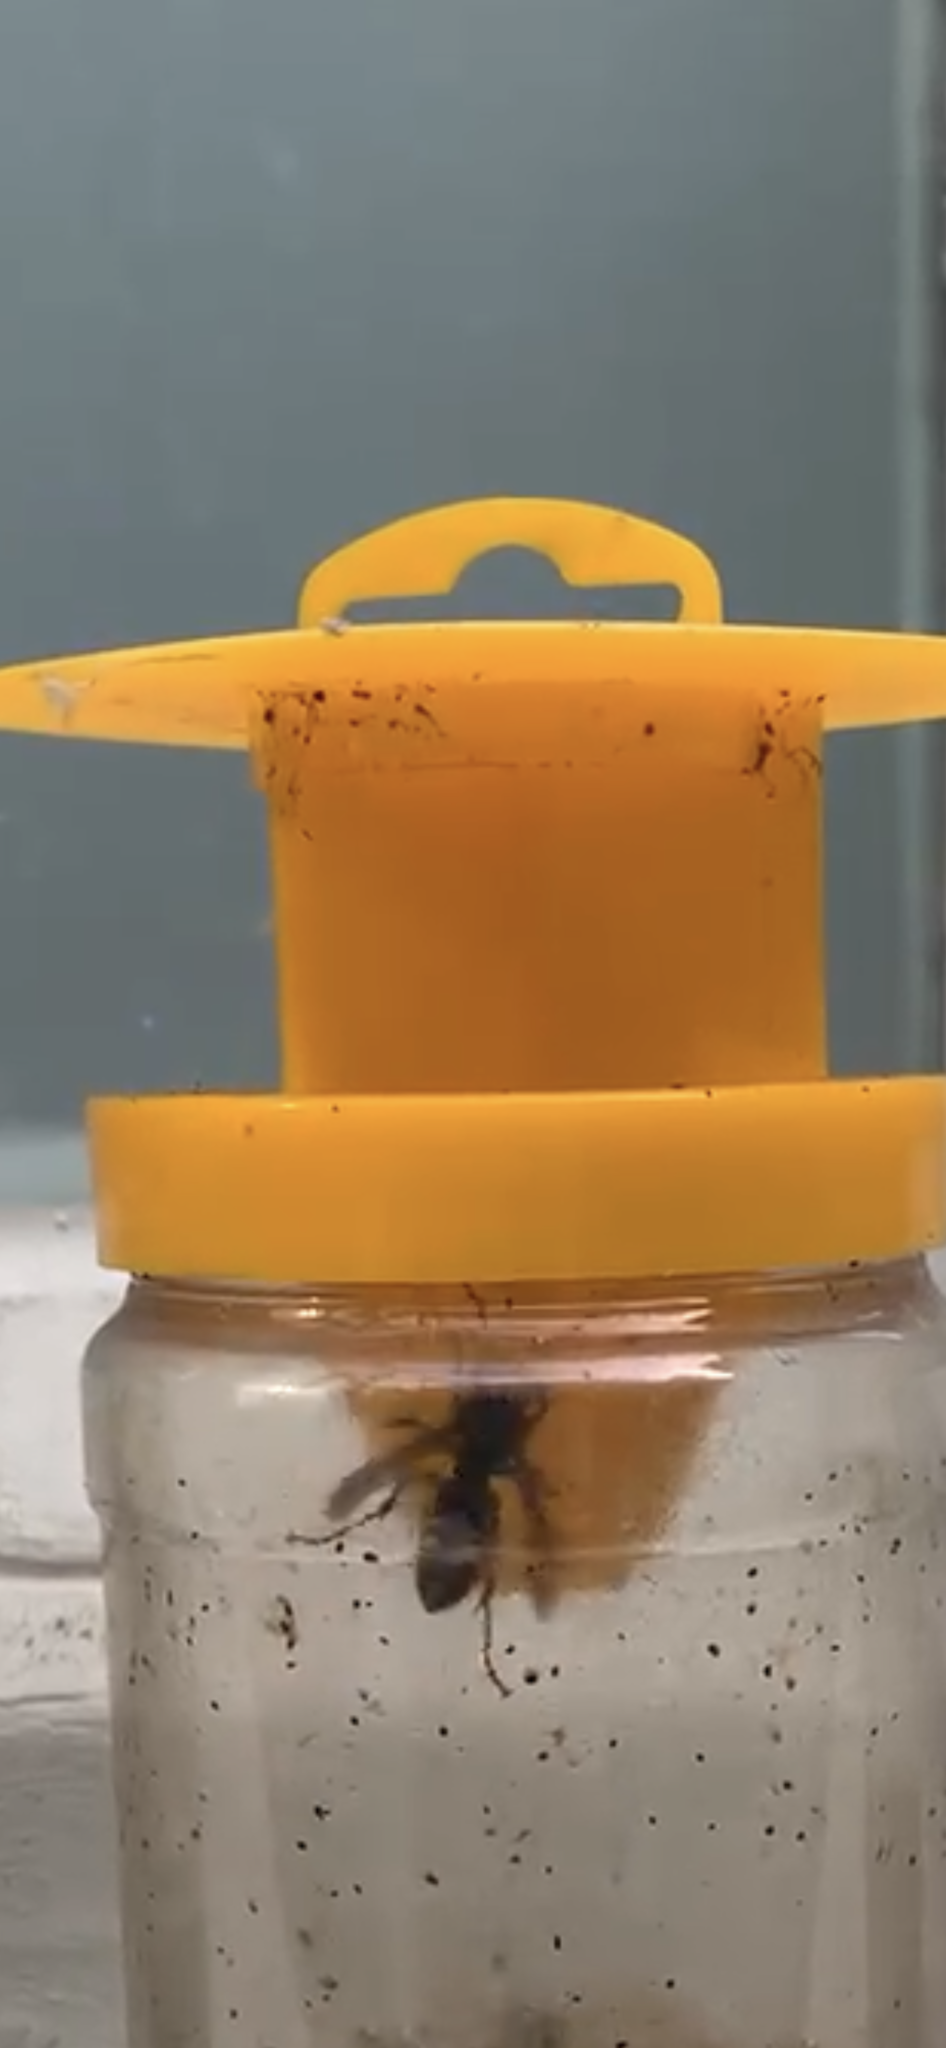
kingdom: Animalia
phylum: Arthropoda
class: Insecta
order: Hymenoptera
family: Vespidae
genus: Vespa
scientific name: Vespa velutina
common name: Asian hornet
